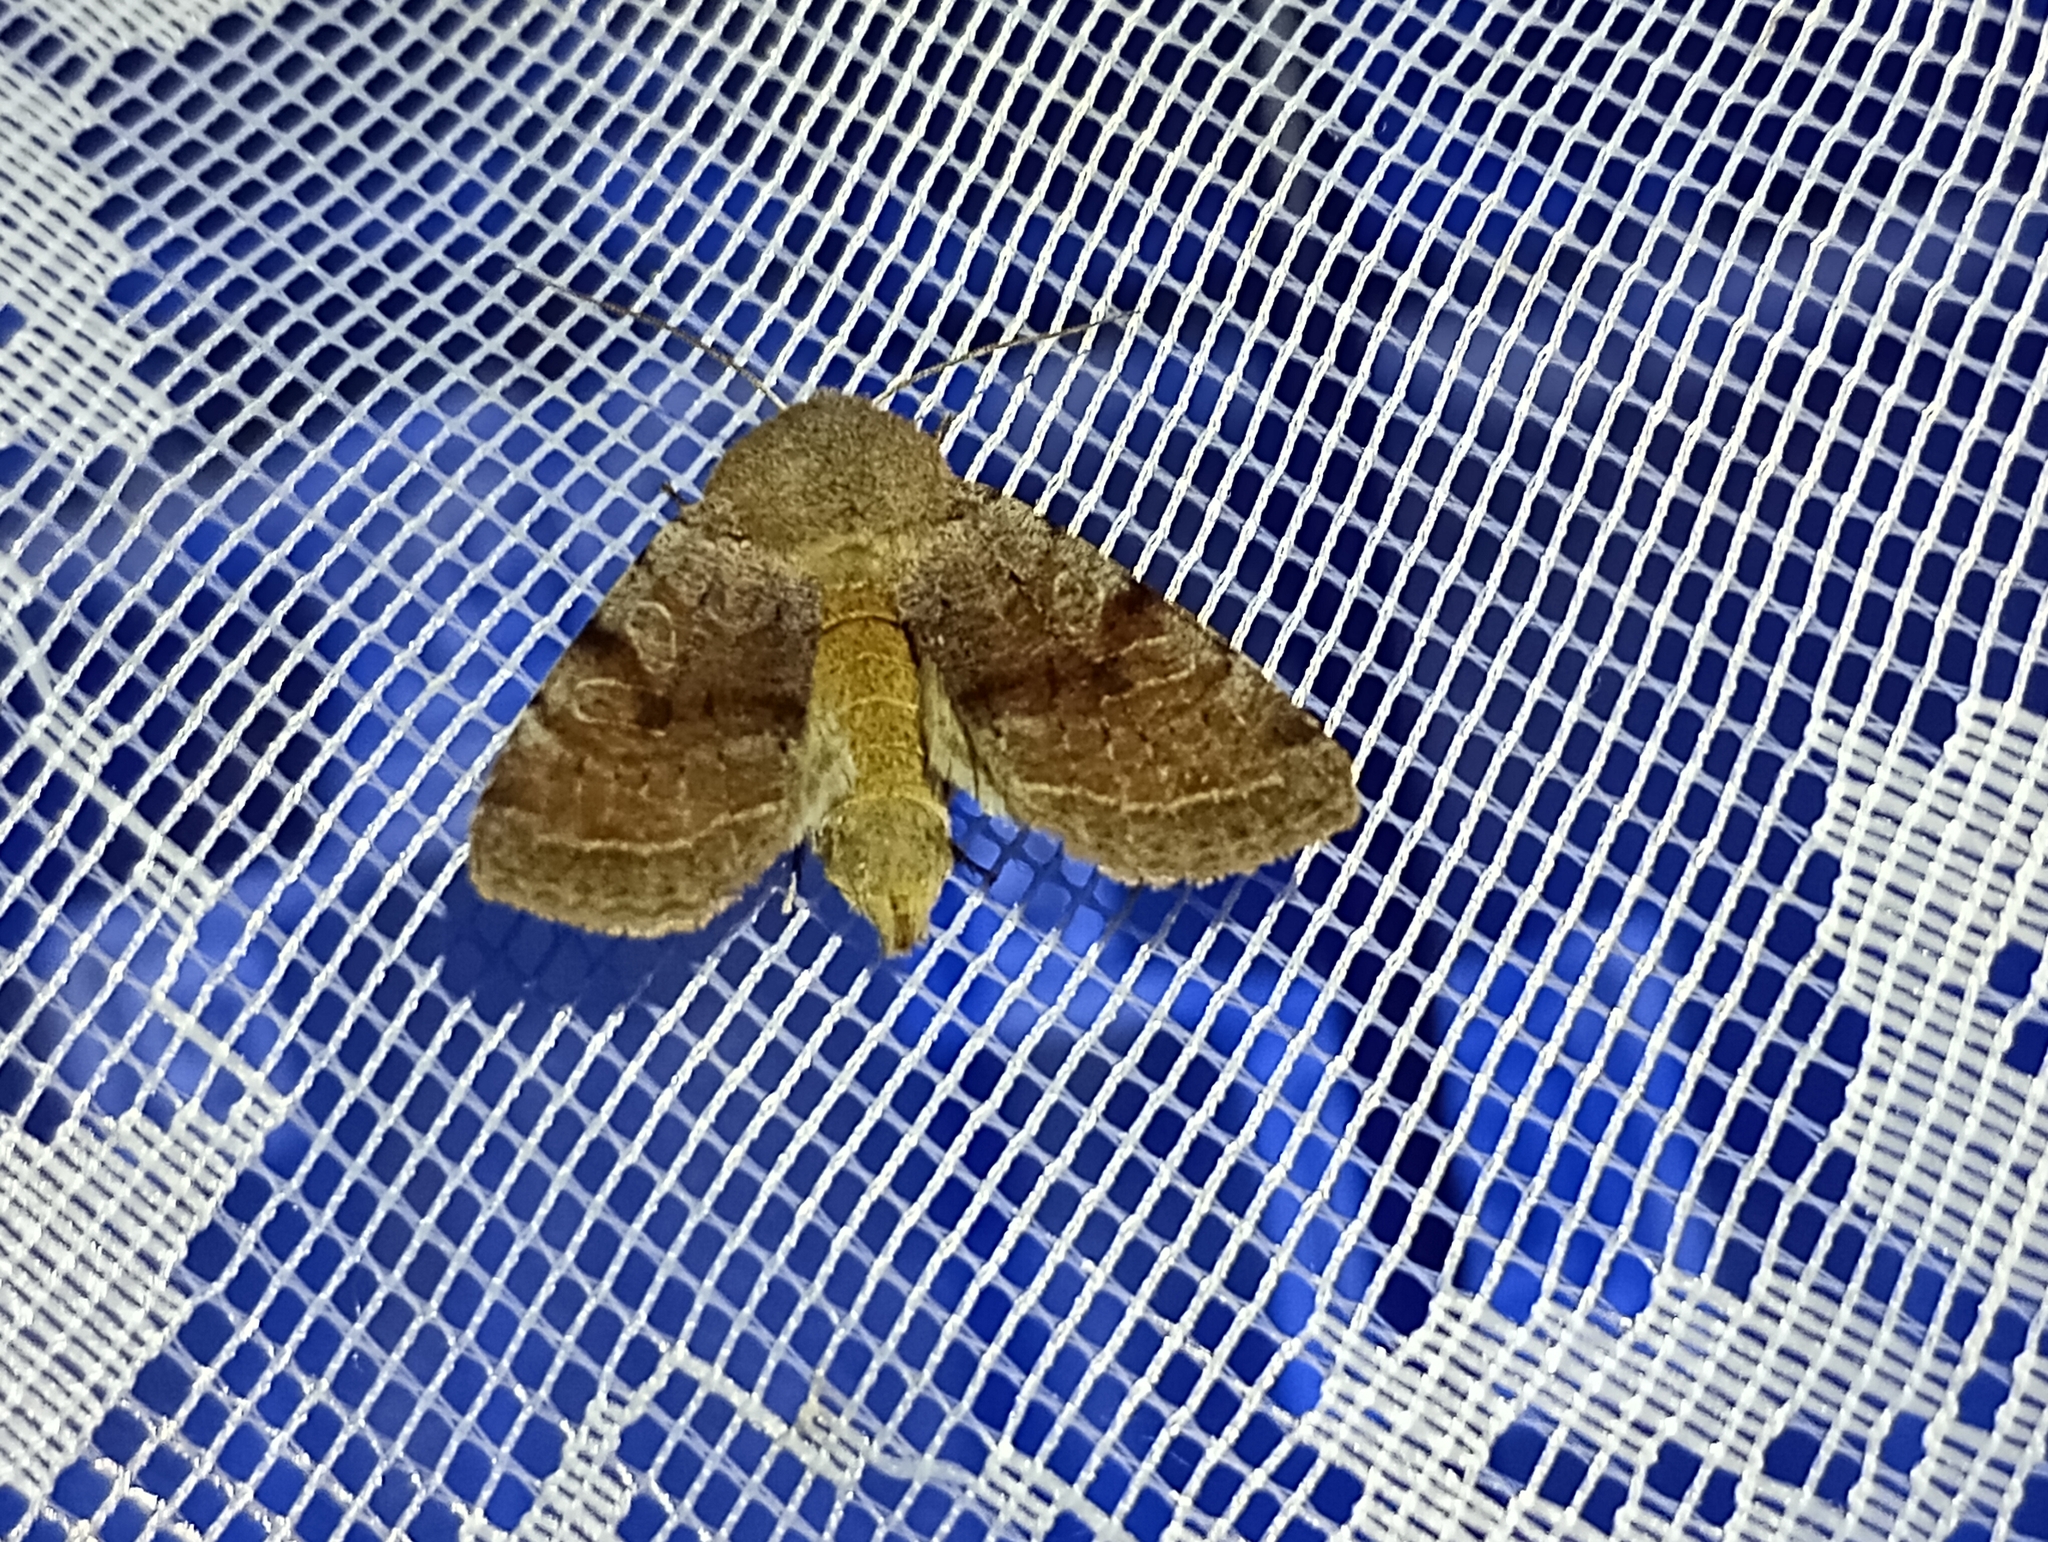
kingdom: Animalia
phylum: Arthropoda
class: Insecta
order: Lepidoptera
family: Noctuidae
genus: Orthosia
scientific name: Orthosia incerta
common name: Clouded drab
